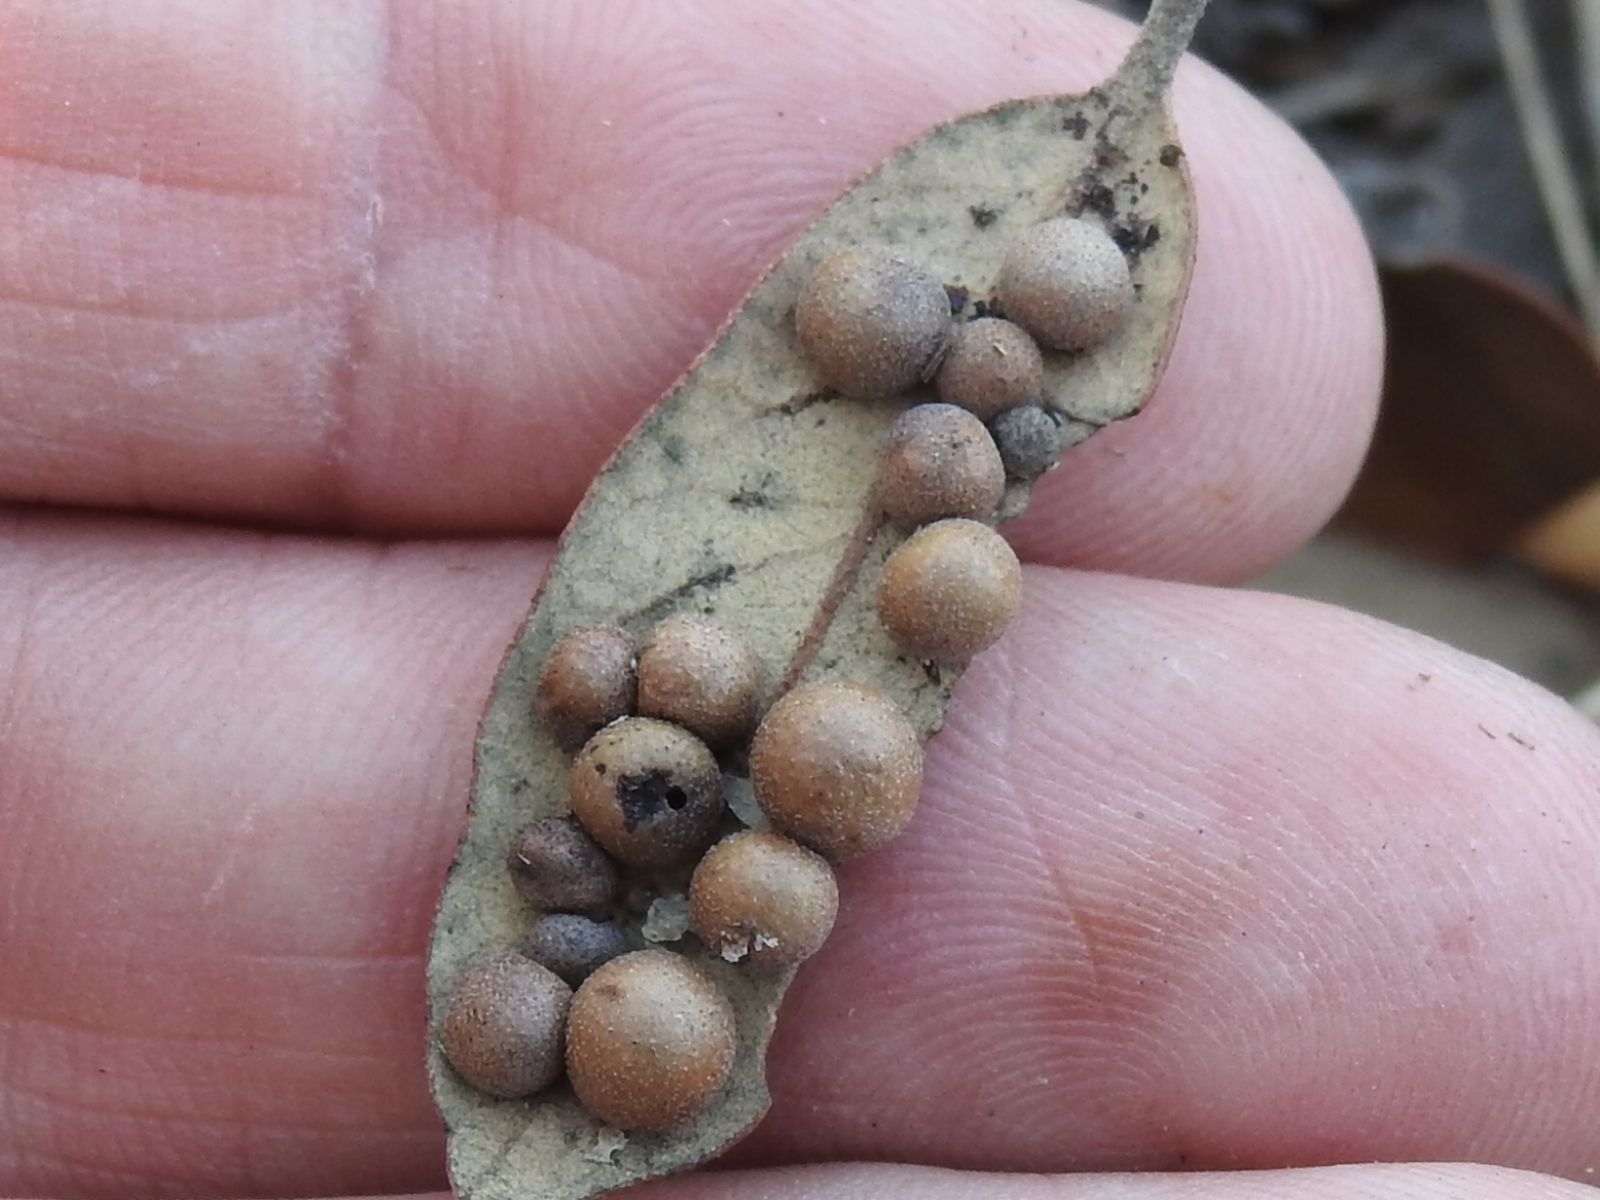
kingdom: Animalia
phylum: Arthropoda
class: Insecta
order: Hymenoptera
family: Cynipidae
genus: Belonocnema
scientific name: Belonocnema kinseyi
